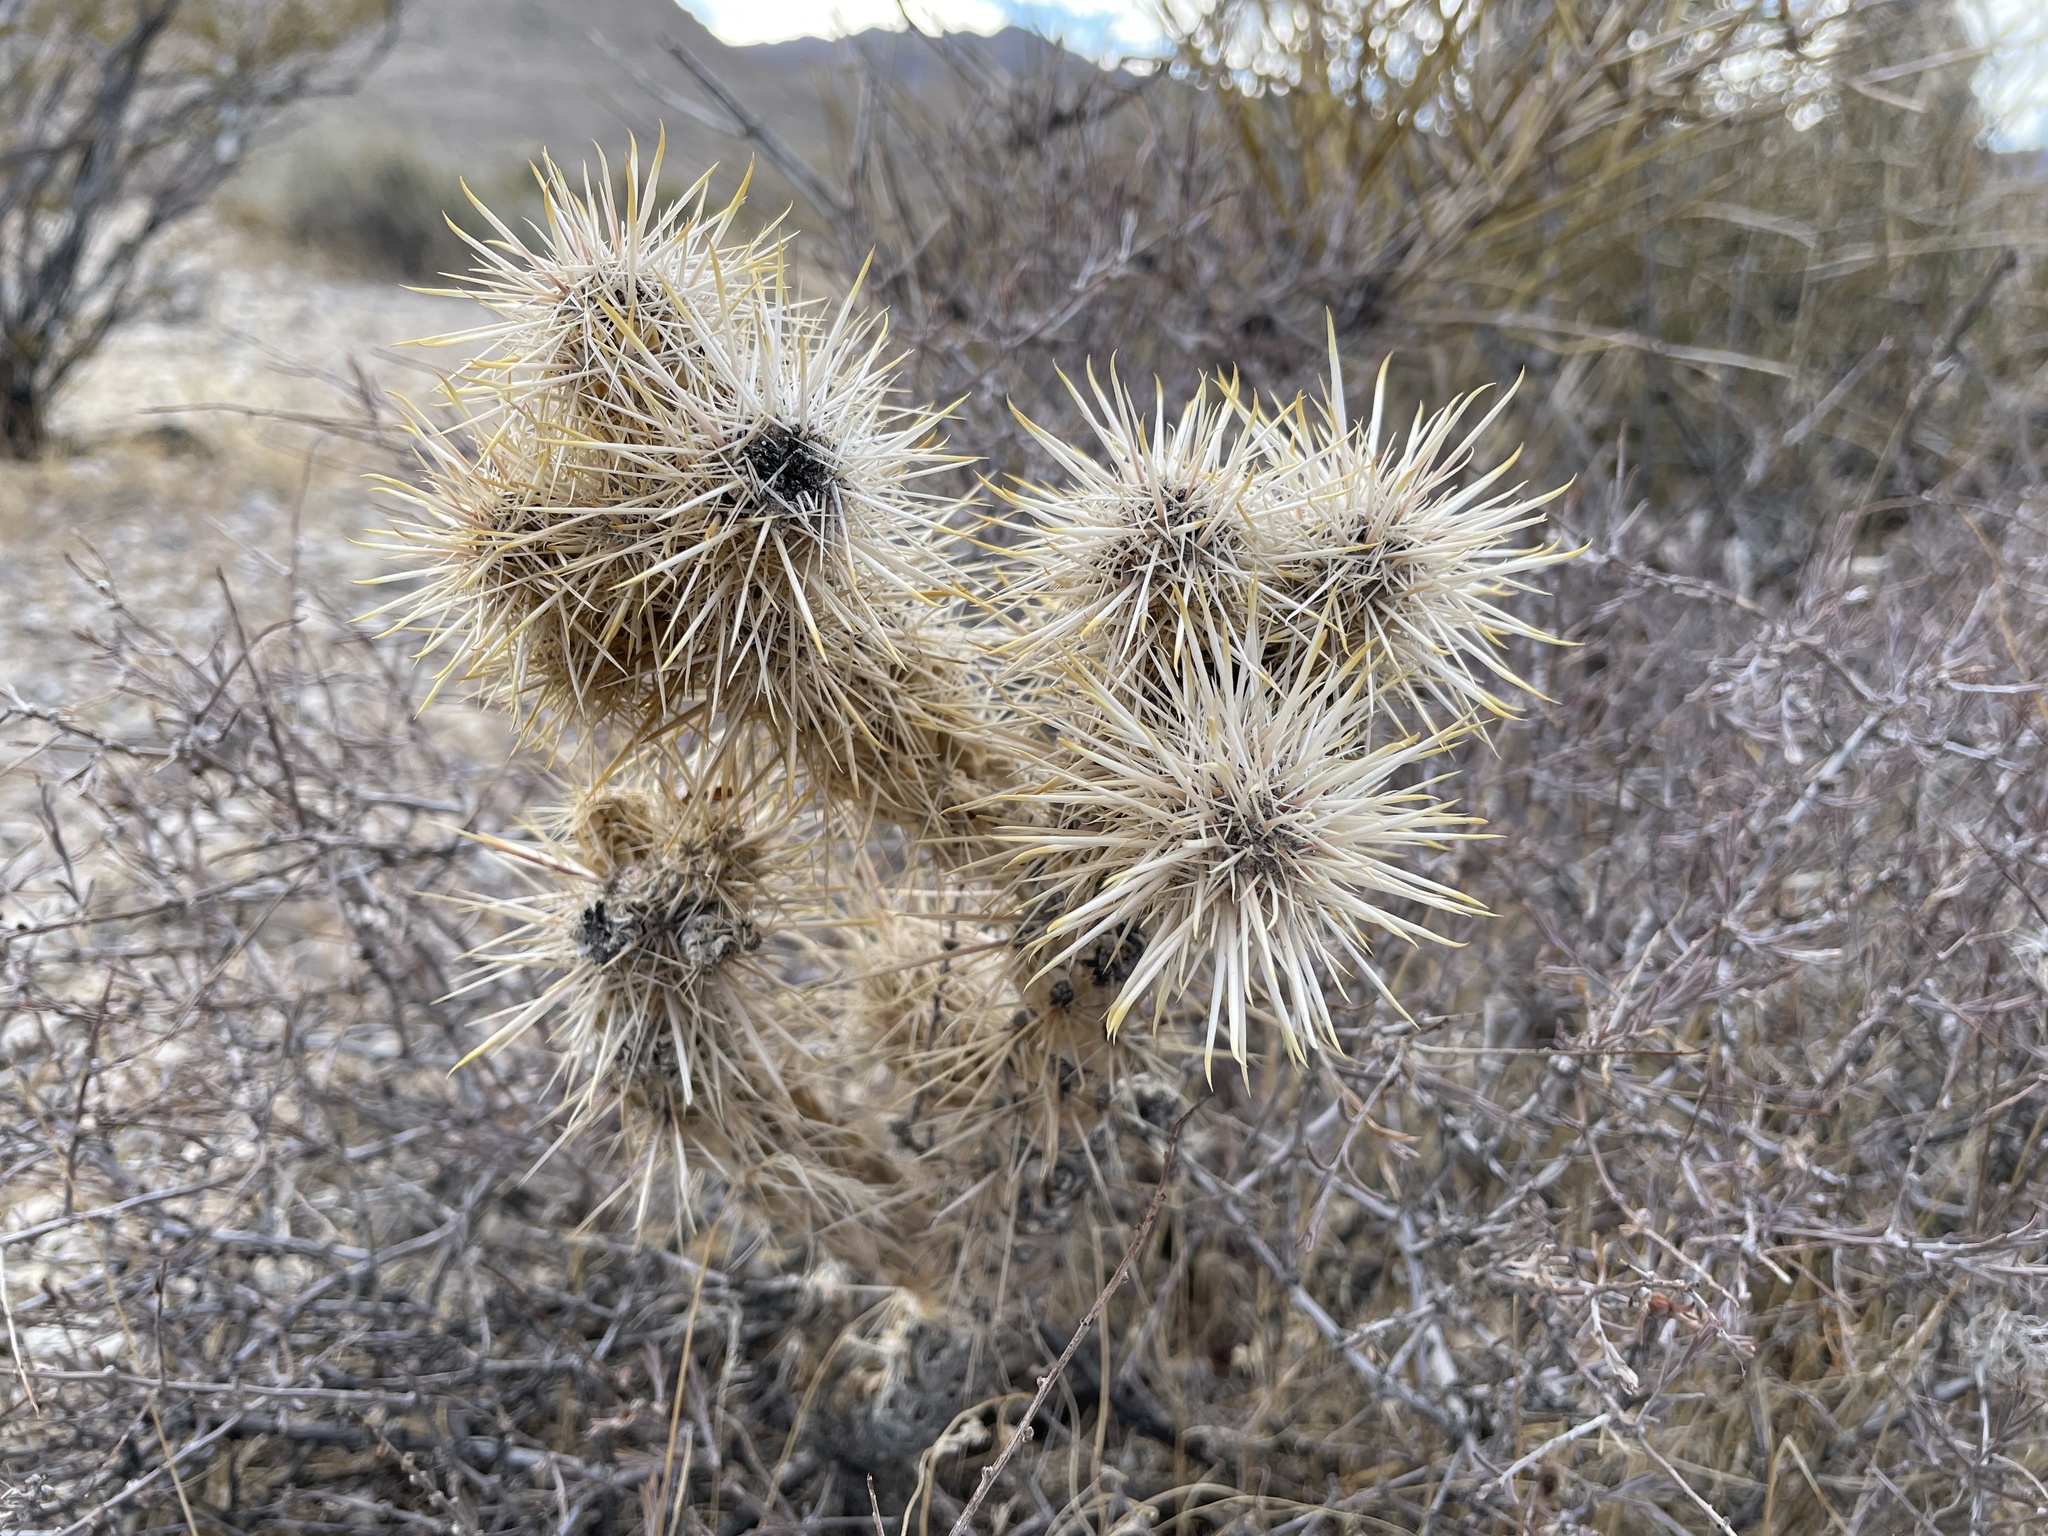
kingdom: Plantae
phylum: Tracheophyta
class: Magnoliopsida
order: Caryophyllales
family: Cactaceae
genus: Cylindropuntia
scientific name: Cylindropuntia echinocarpa
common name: Ground cholla
